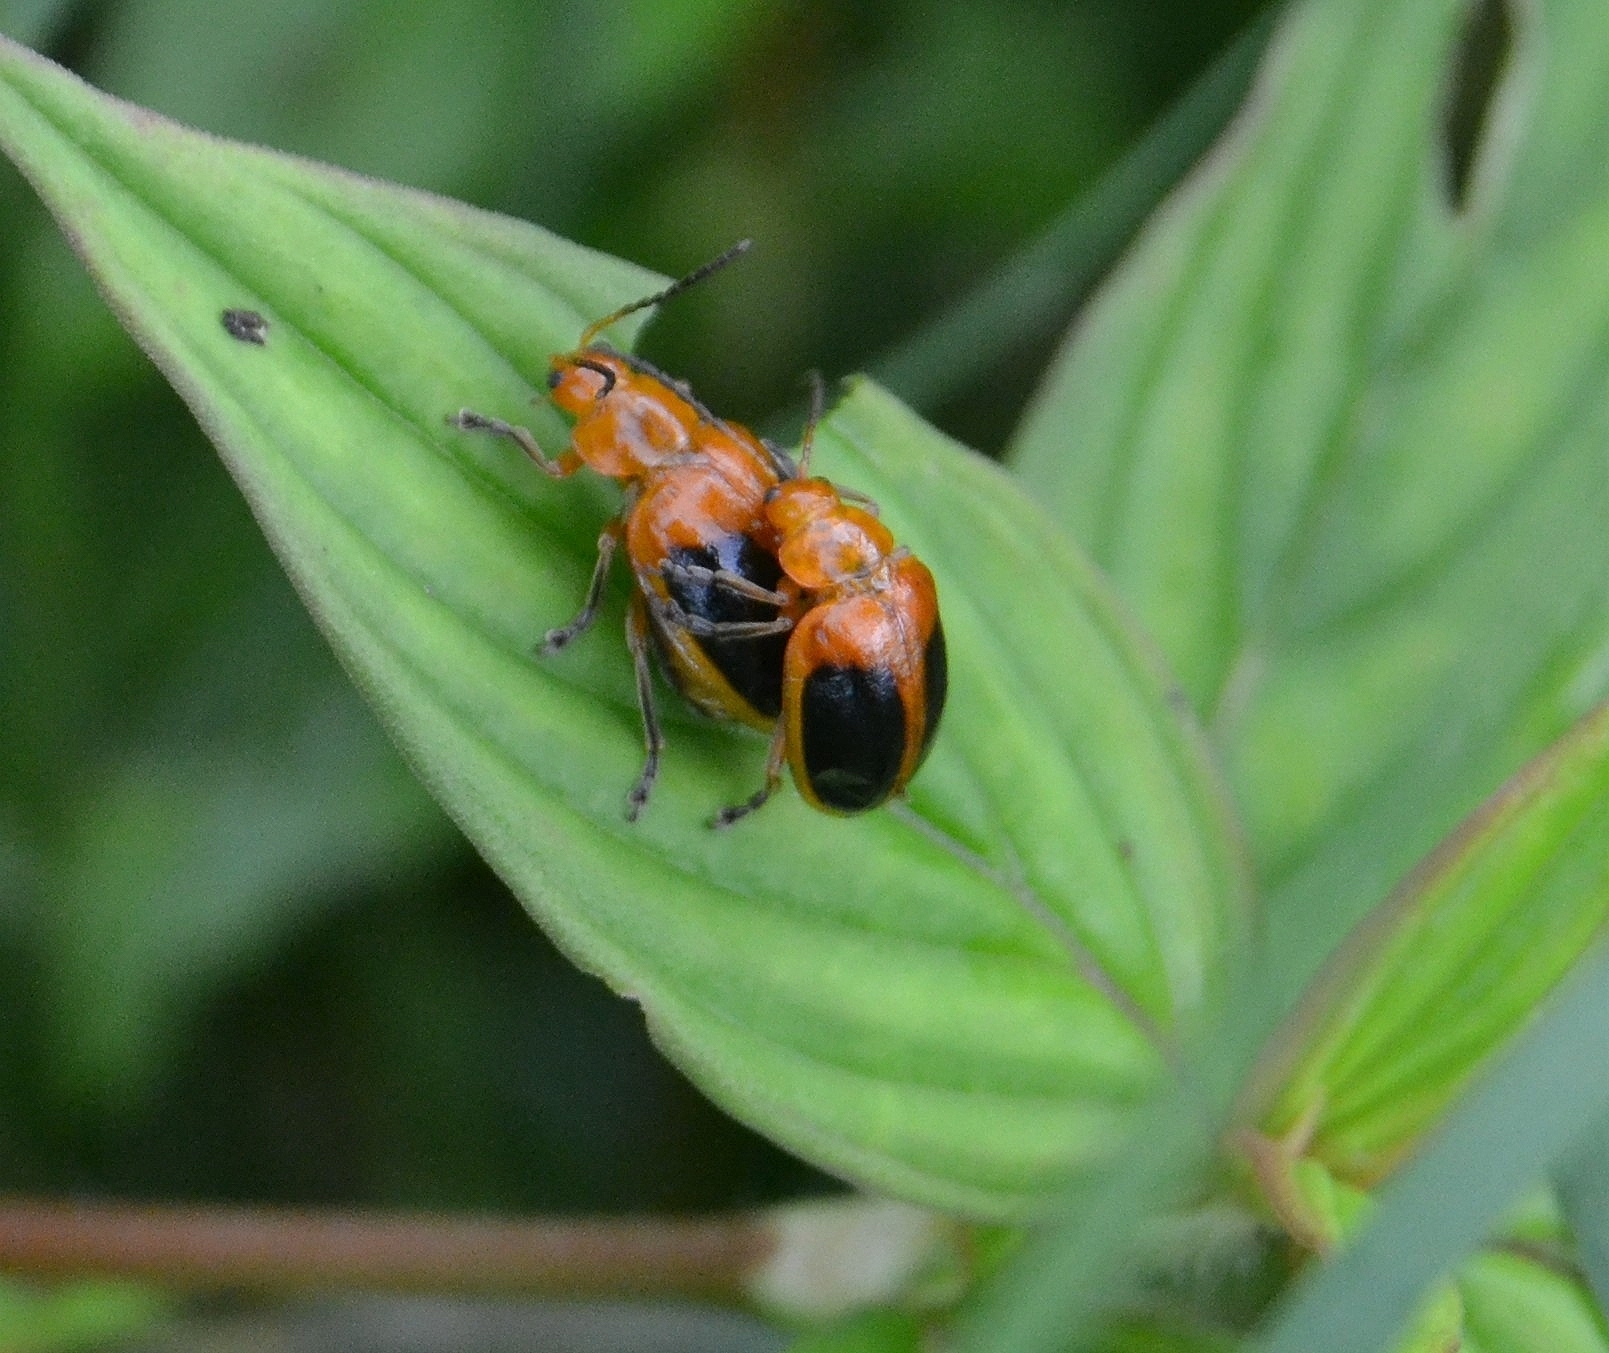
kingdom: Animalia
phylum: Arthropoda
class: Insecta
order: Coleoptera
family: Chrysomelidae
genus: Oides
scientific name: Oides affinis
